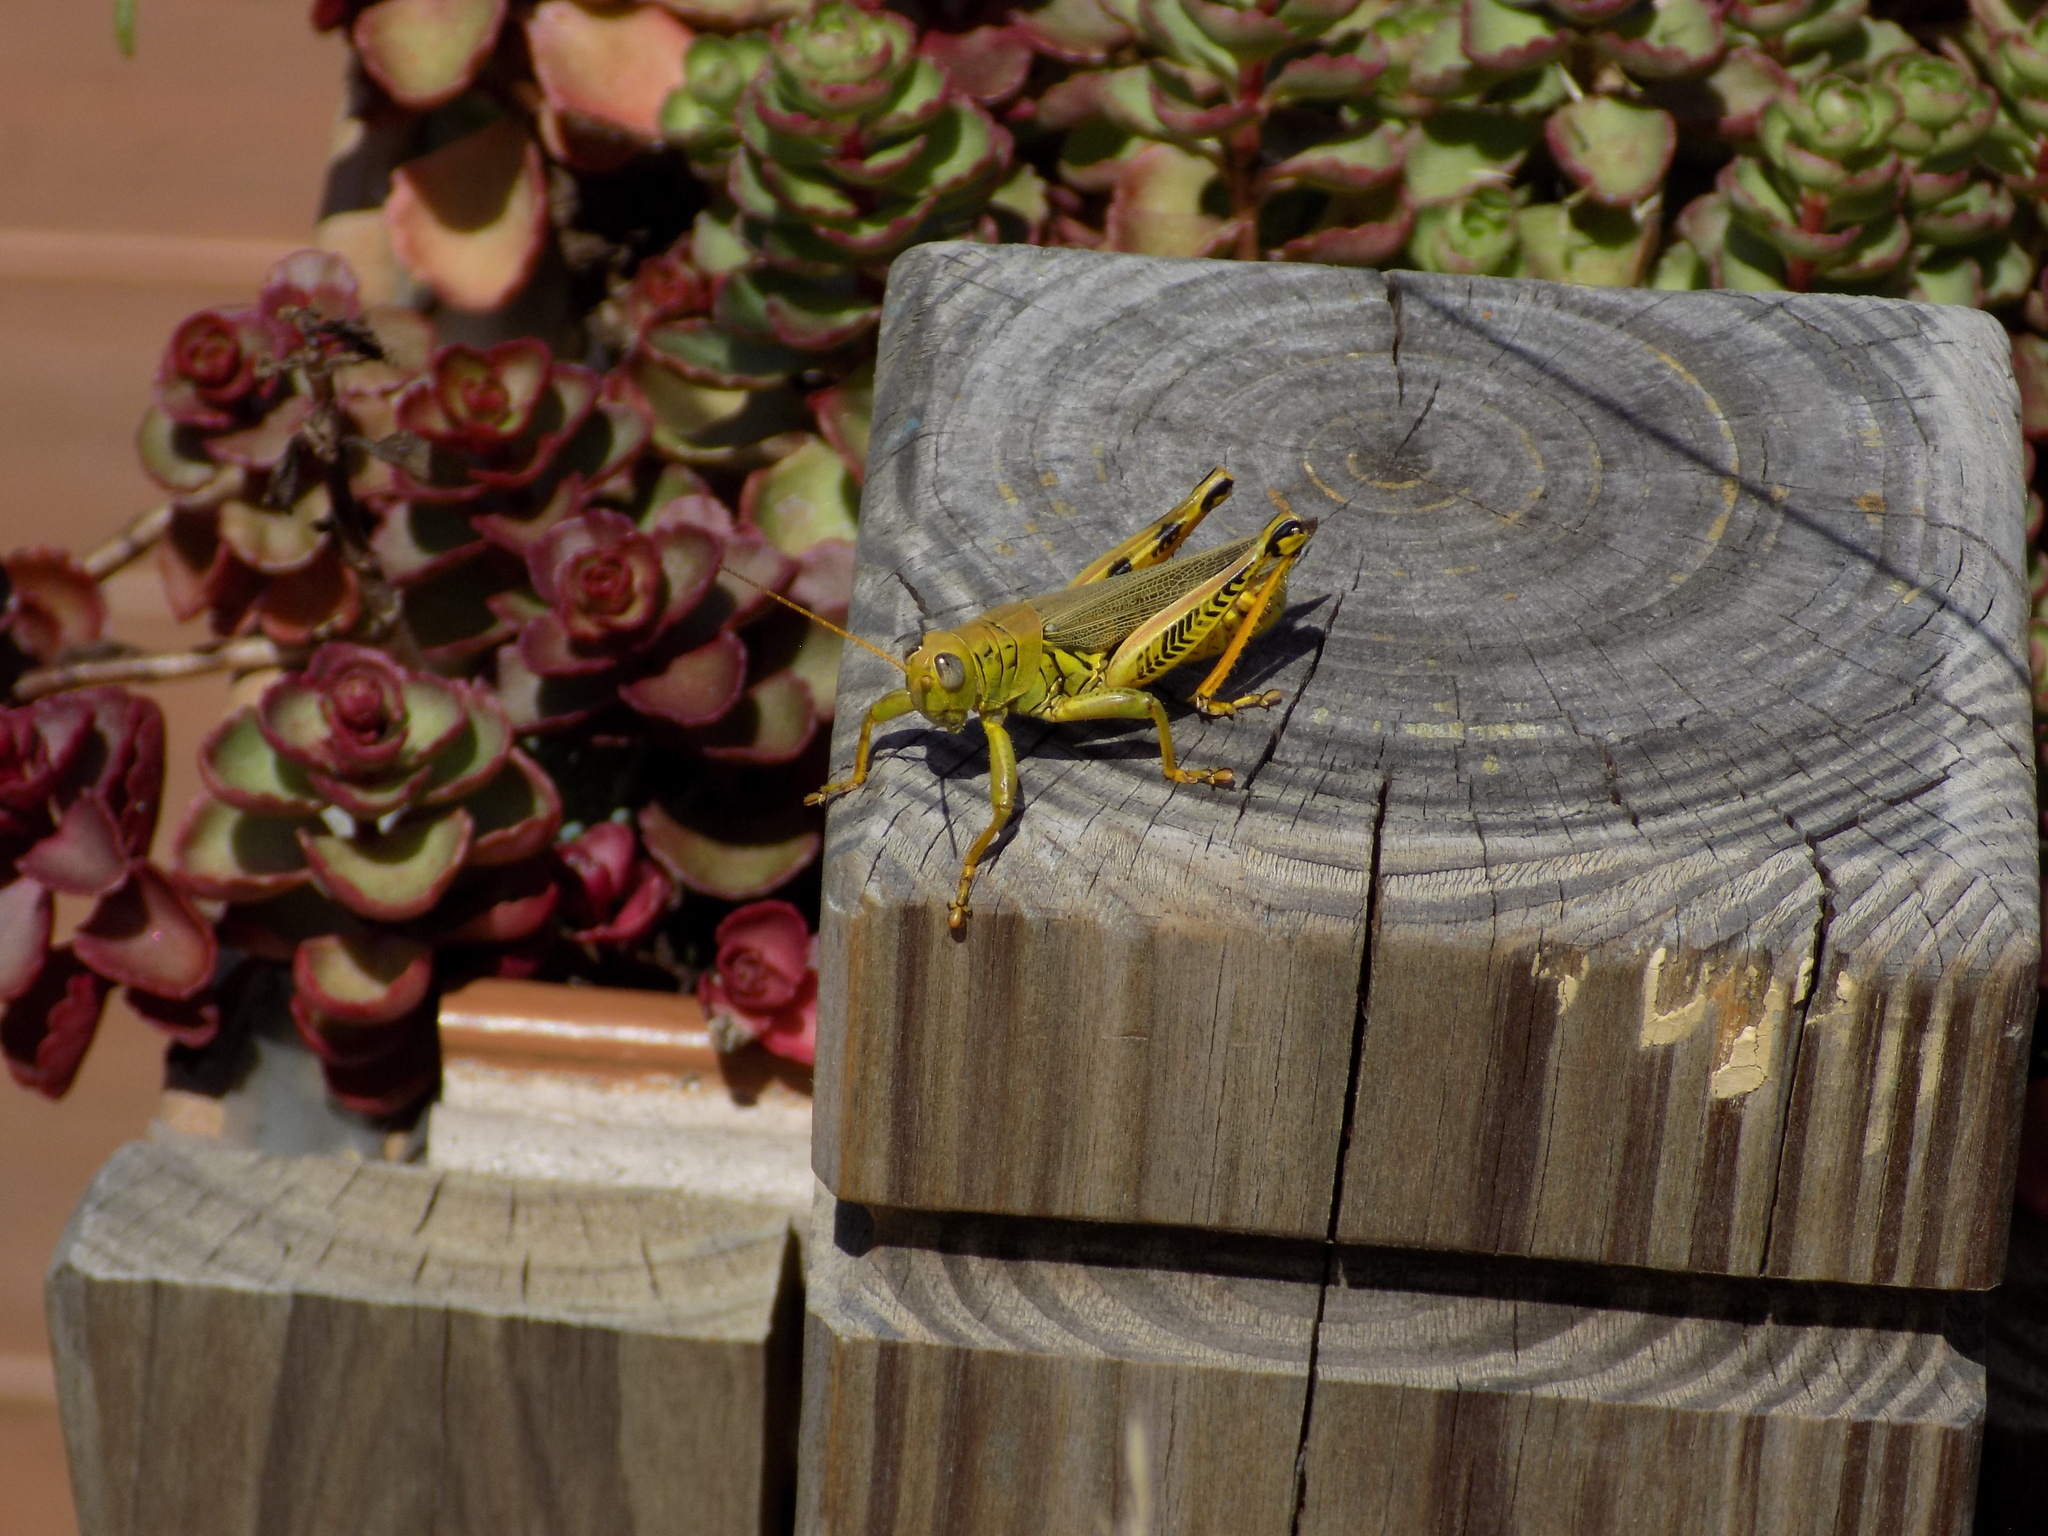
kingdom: Animalia
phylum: Arthropoda
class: Insecta
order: Orthoptera
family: Acrididae
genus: Melanoplus
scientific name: Melanoplus differentialis
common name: Differential grasshopper
